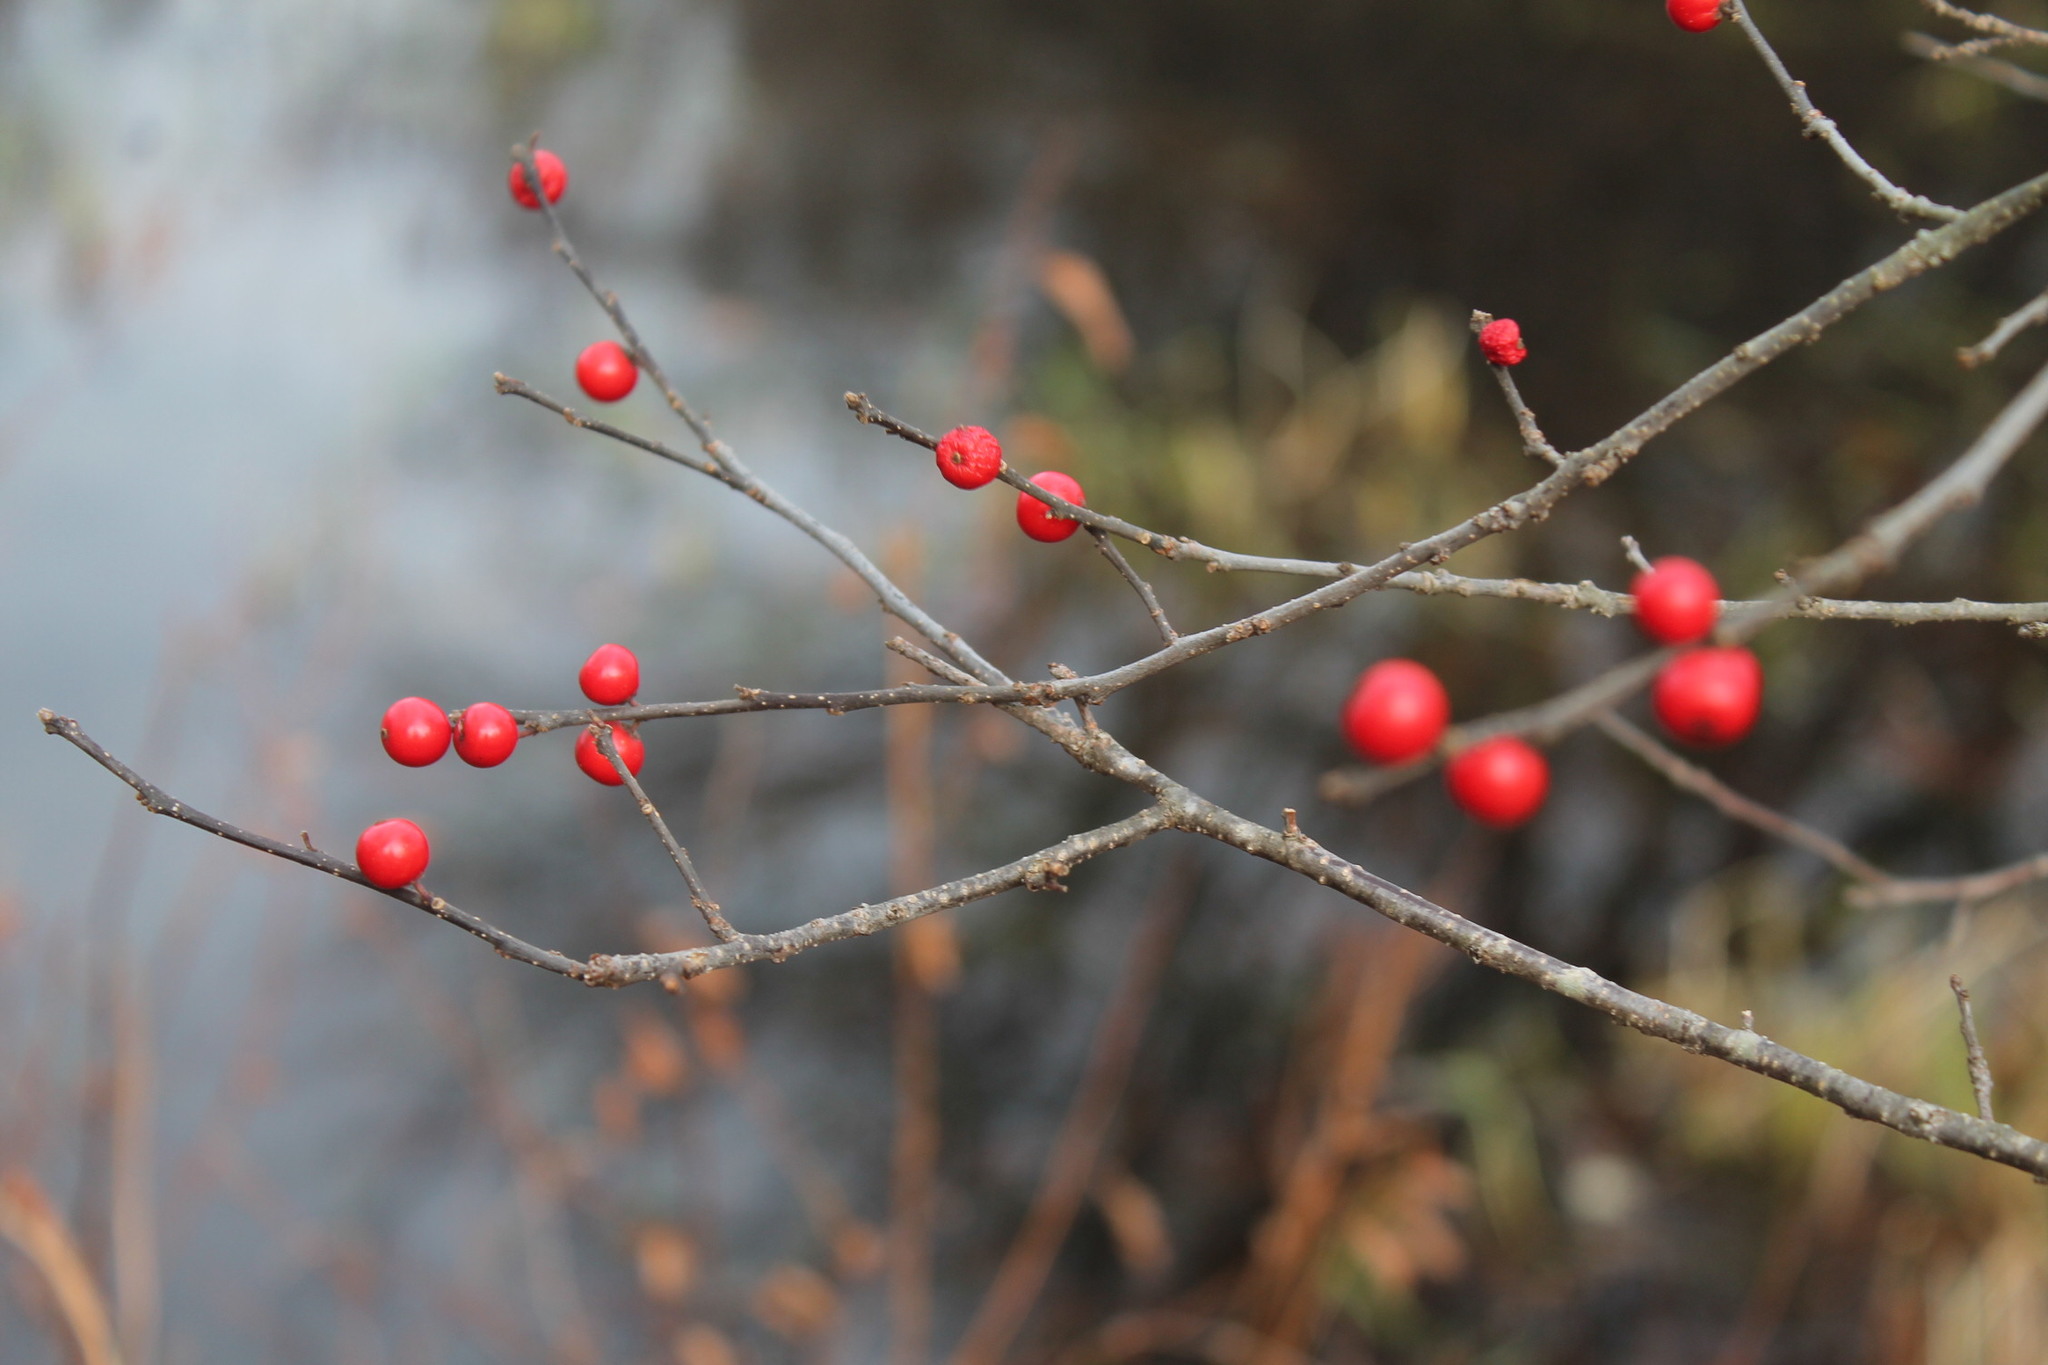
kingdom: Plantae
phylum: Tracheophyta
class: Magnoliopsida
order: Aquifoliales
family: Aquifoliaceae
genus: Ilex
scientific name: Ilex verticillata
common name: Virginia winterberry
